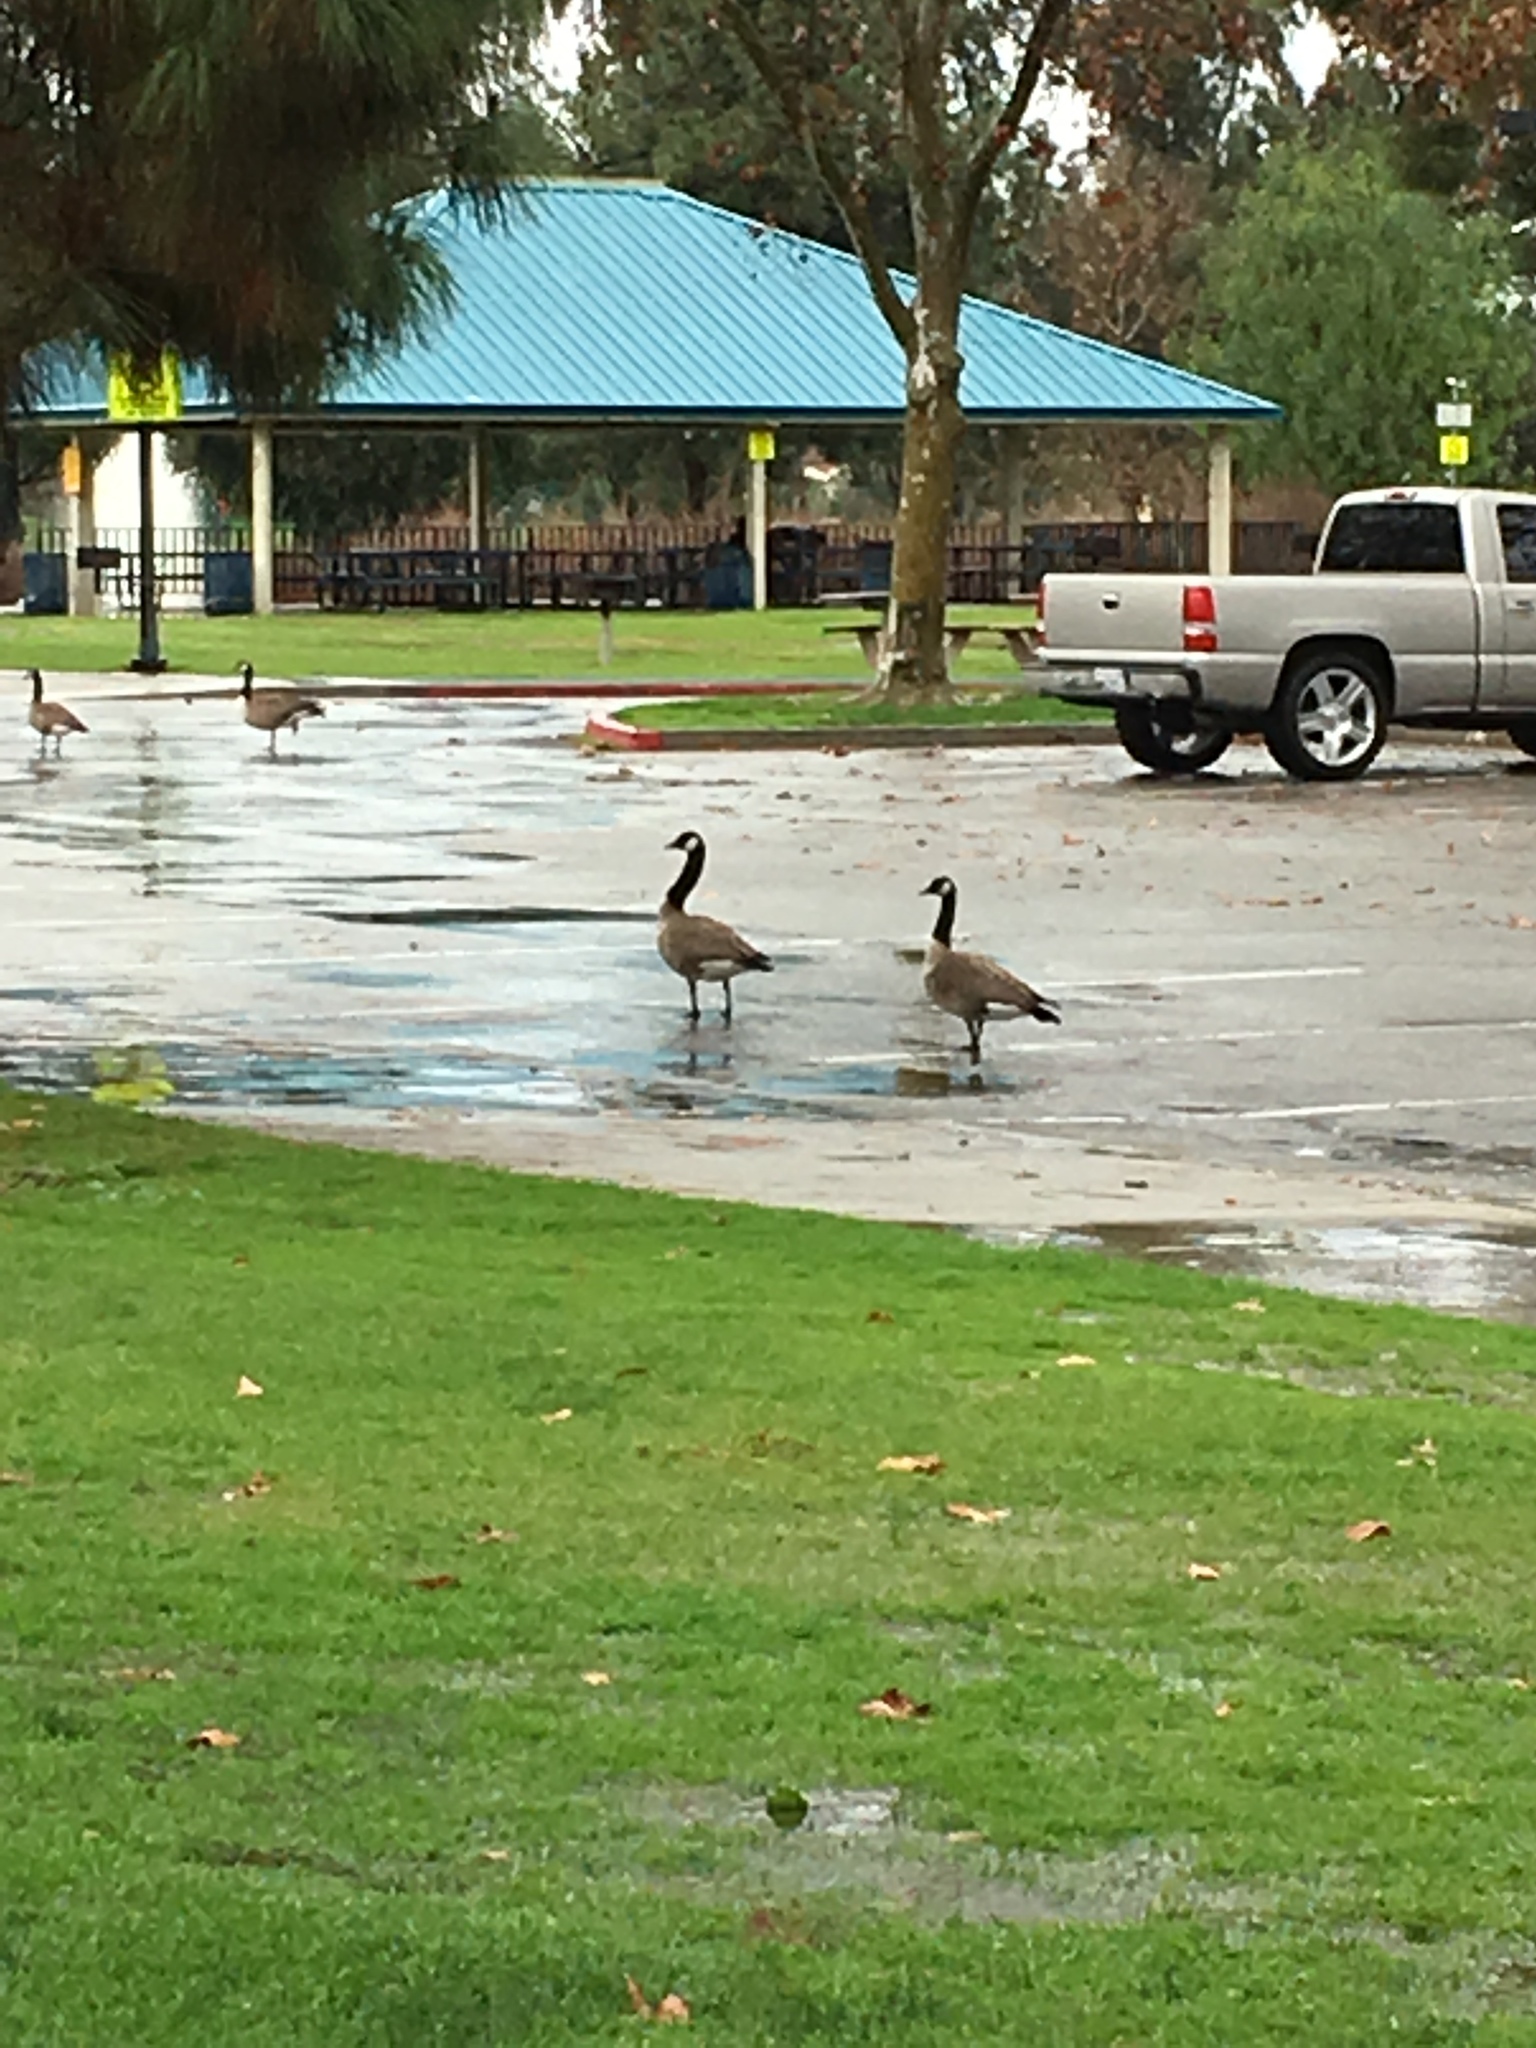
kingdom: Animalia
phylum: Chordata
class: Aves
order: Anseriformes
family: Anatidae
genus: Branta
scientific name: Branta canadensis
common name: Canada goose
